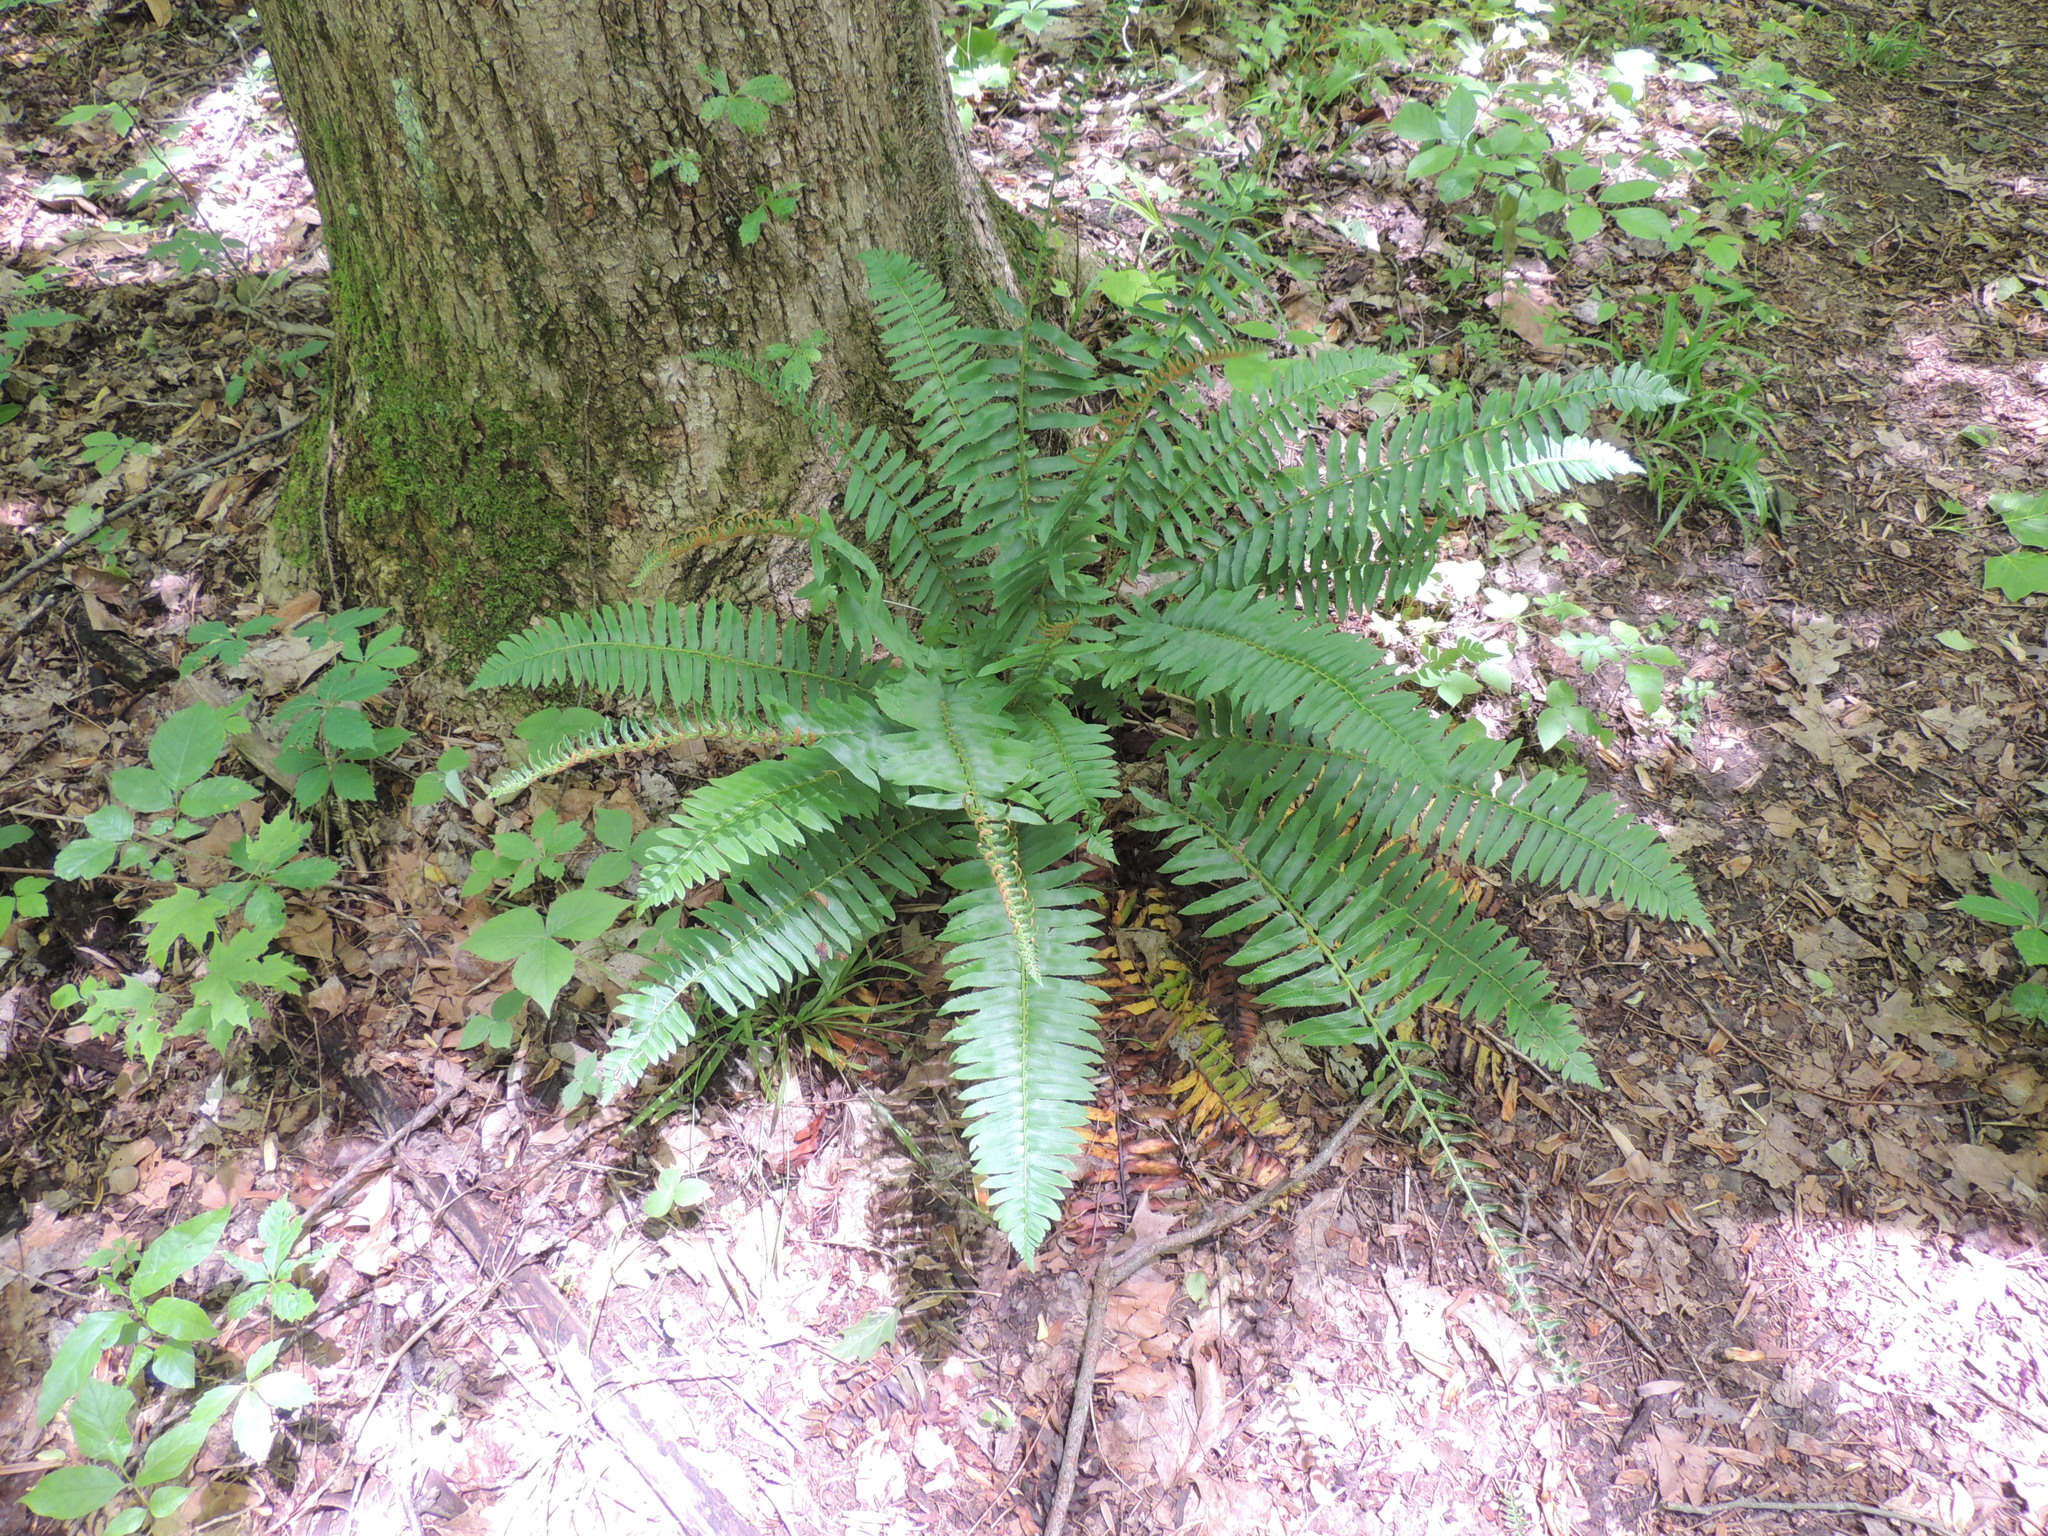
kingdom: Plantae
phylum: Tracheophyta
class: Polypodiopsida
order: Polypodiales
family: Dryopteridaceae
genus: Polystichum
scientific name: Polystichum acrostichoides
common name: Christmas fern
